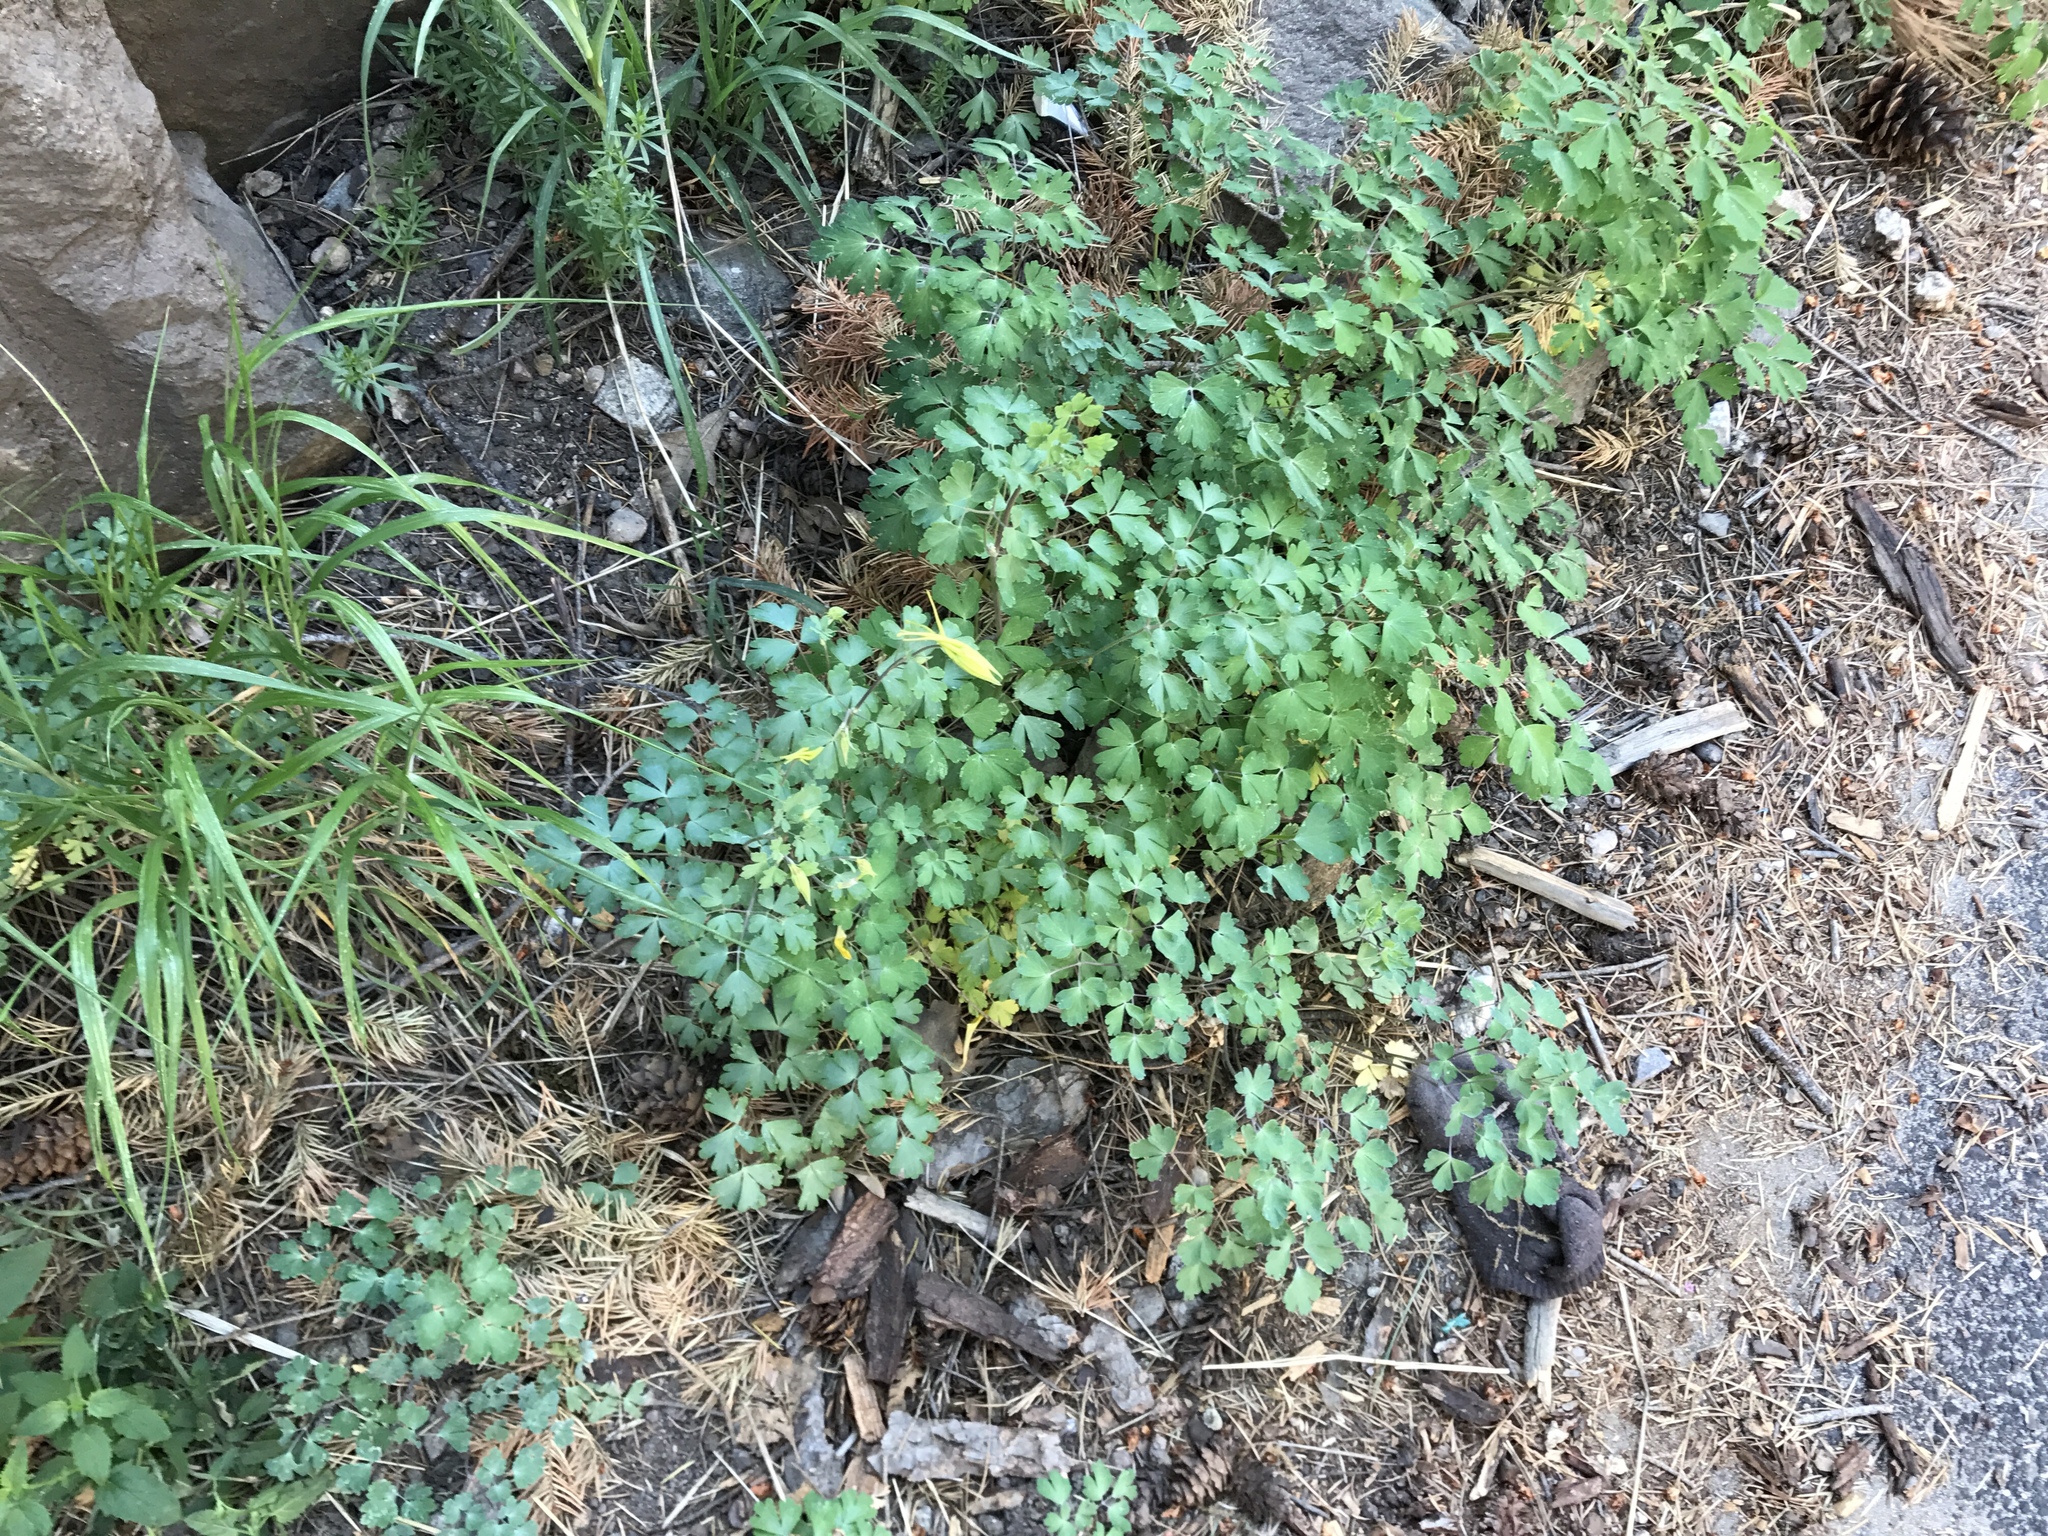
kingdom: Plantae
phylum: Tracheophyta
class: Magnoliopsida
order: Ranunculales
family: Ranunculaceae
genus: Aquilegia
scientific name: Aquilegia chrysantha
